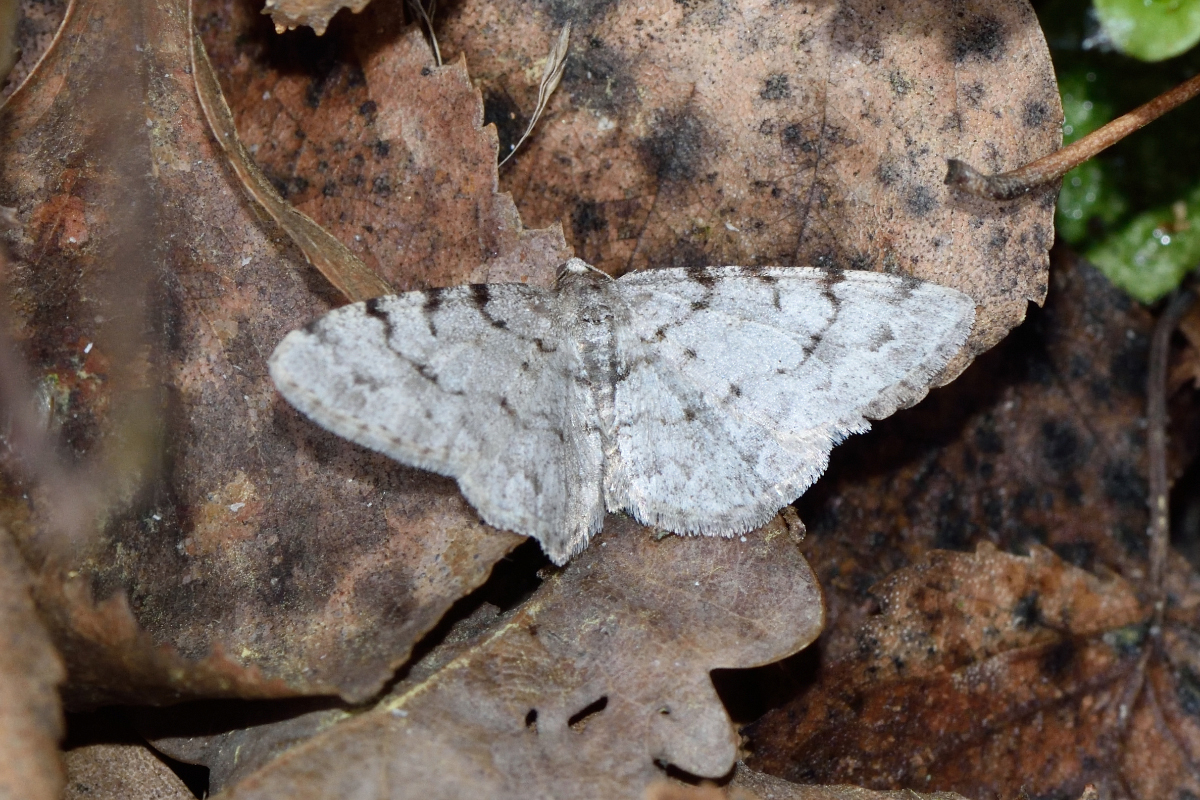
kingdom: Animalia
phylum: Arthropoda
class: Insecta
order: Lepidoptera
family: Geometridae
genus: Aethalura
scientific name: Aethalura punctulata
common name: Grey birch
